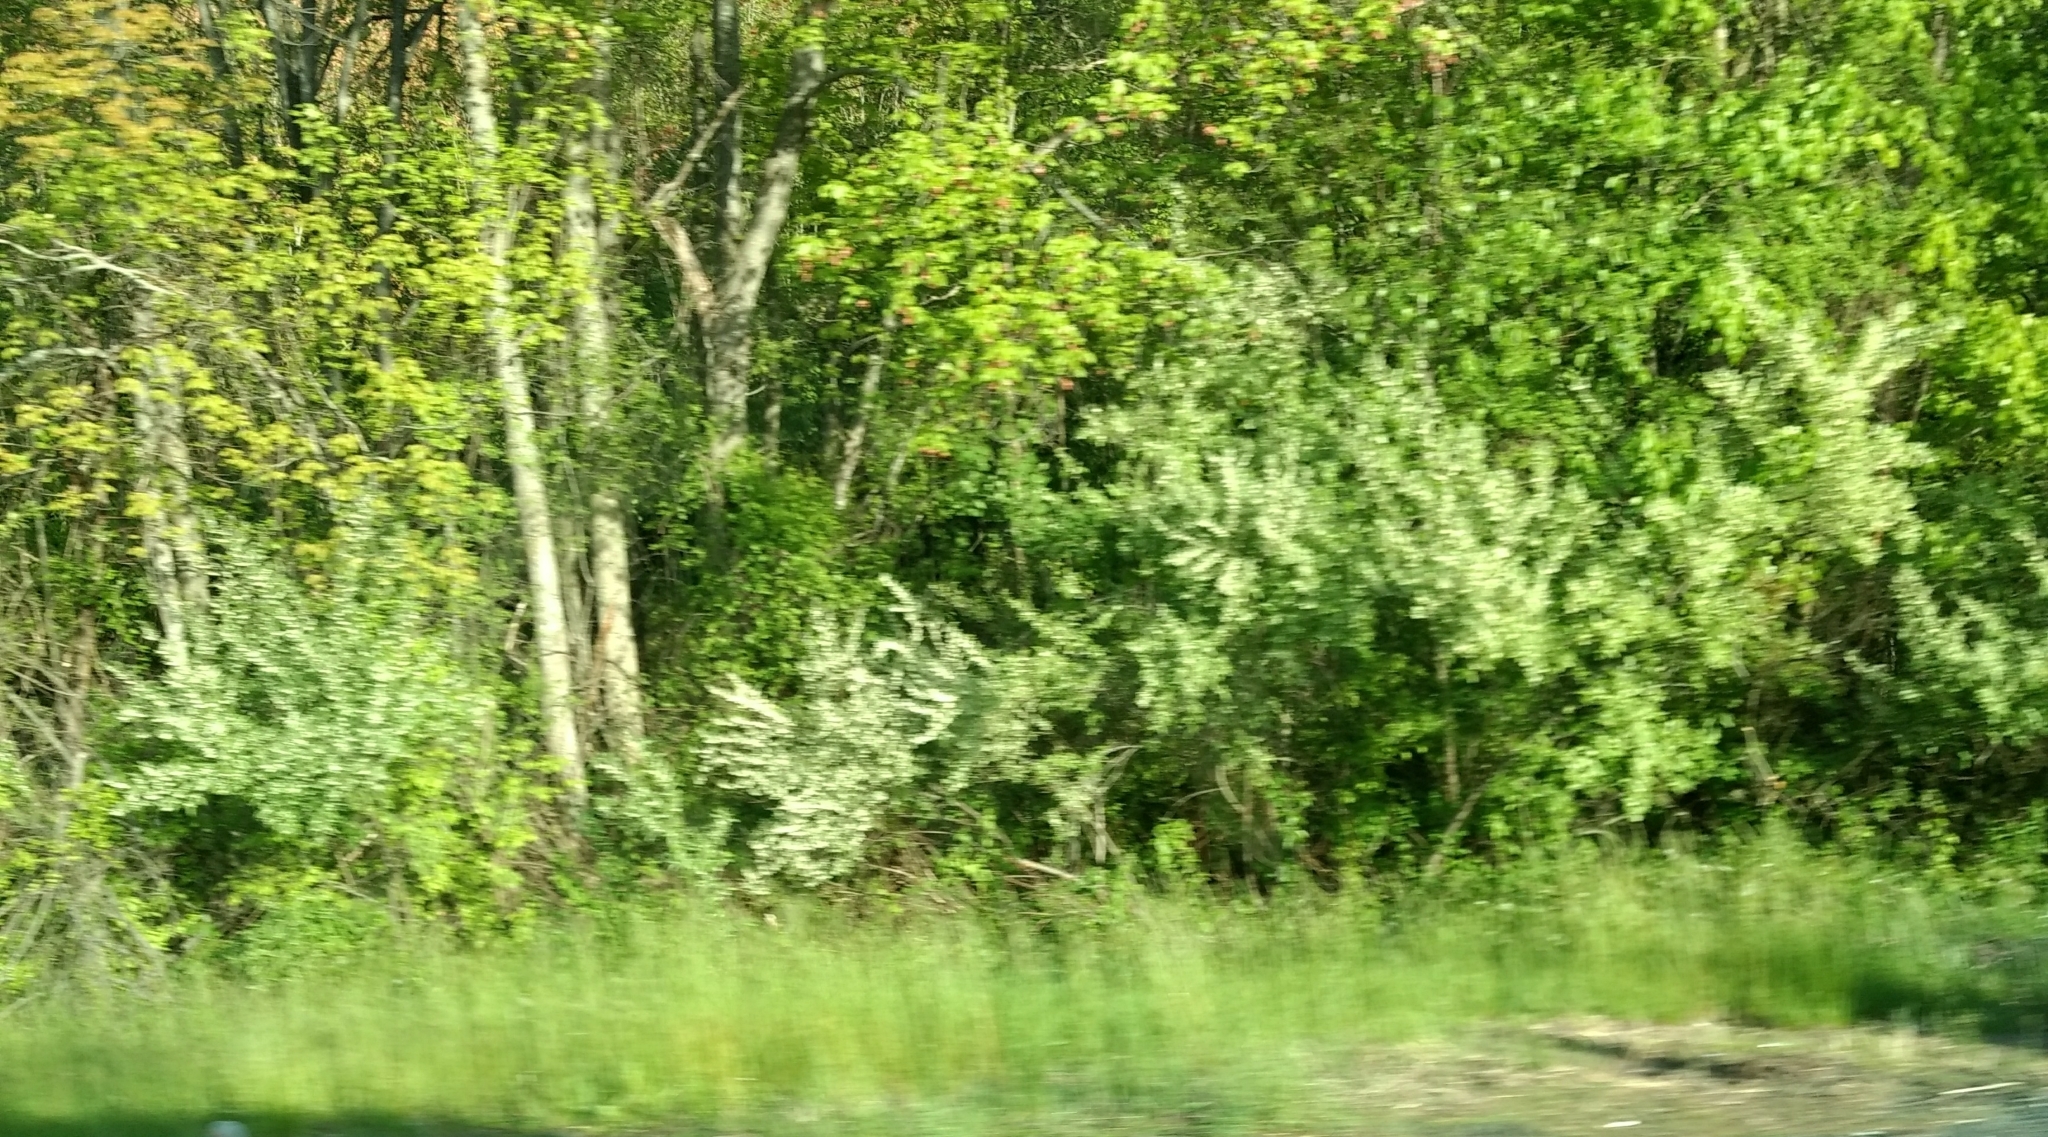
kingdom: Plantae
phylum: Tracheophyta
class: Magnoliopsida
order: Rosales
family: Elaeagnaceae
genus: Elaeagnus
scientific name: Elaeagnus umbellata
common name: Autumn olive
